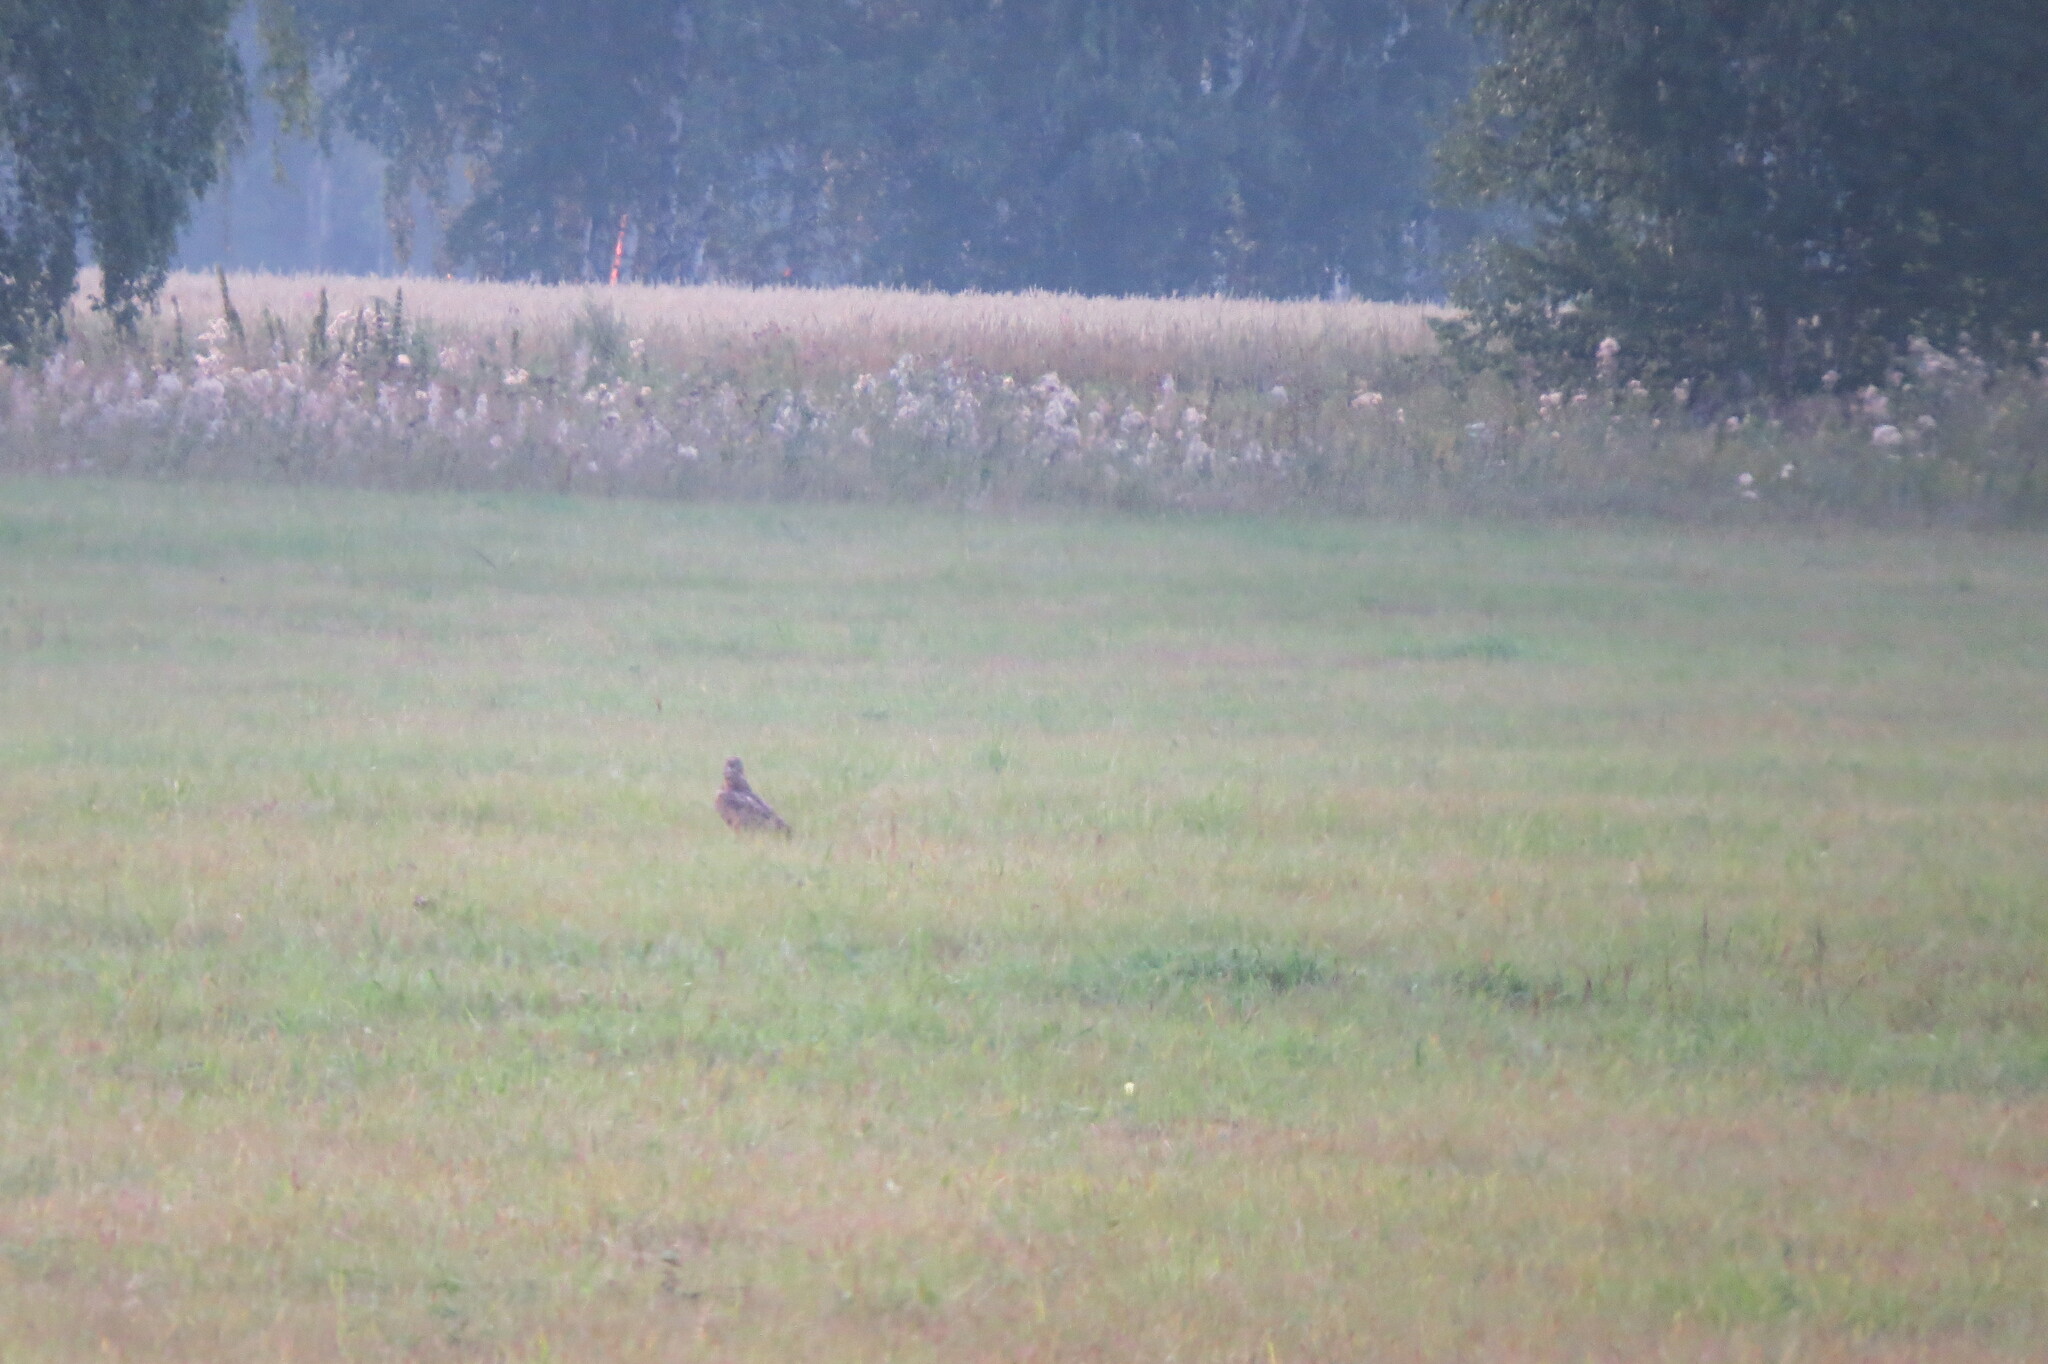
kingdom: Animalia
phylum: Chordata
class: Aves
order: Accipitriformes
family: Accipitridae
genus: Buteo
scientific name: Buteo buteo
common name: Common buzzard
